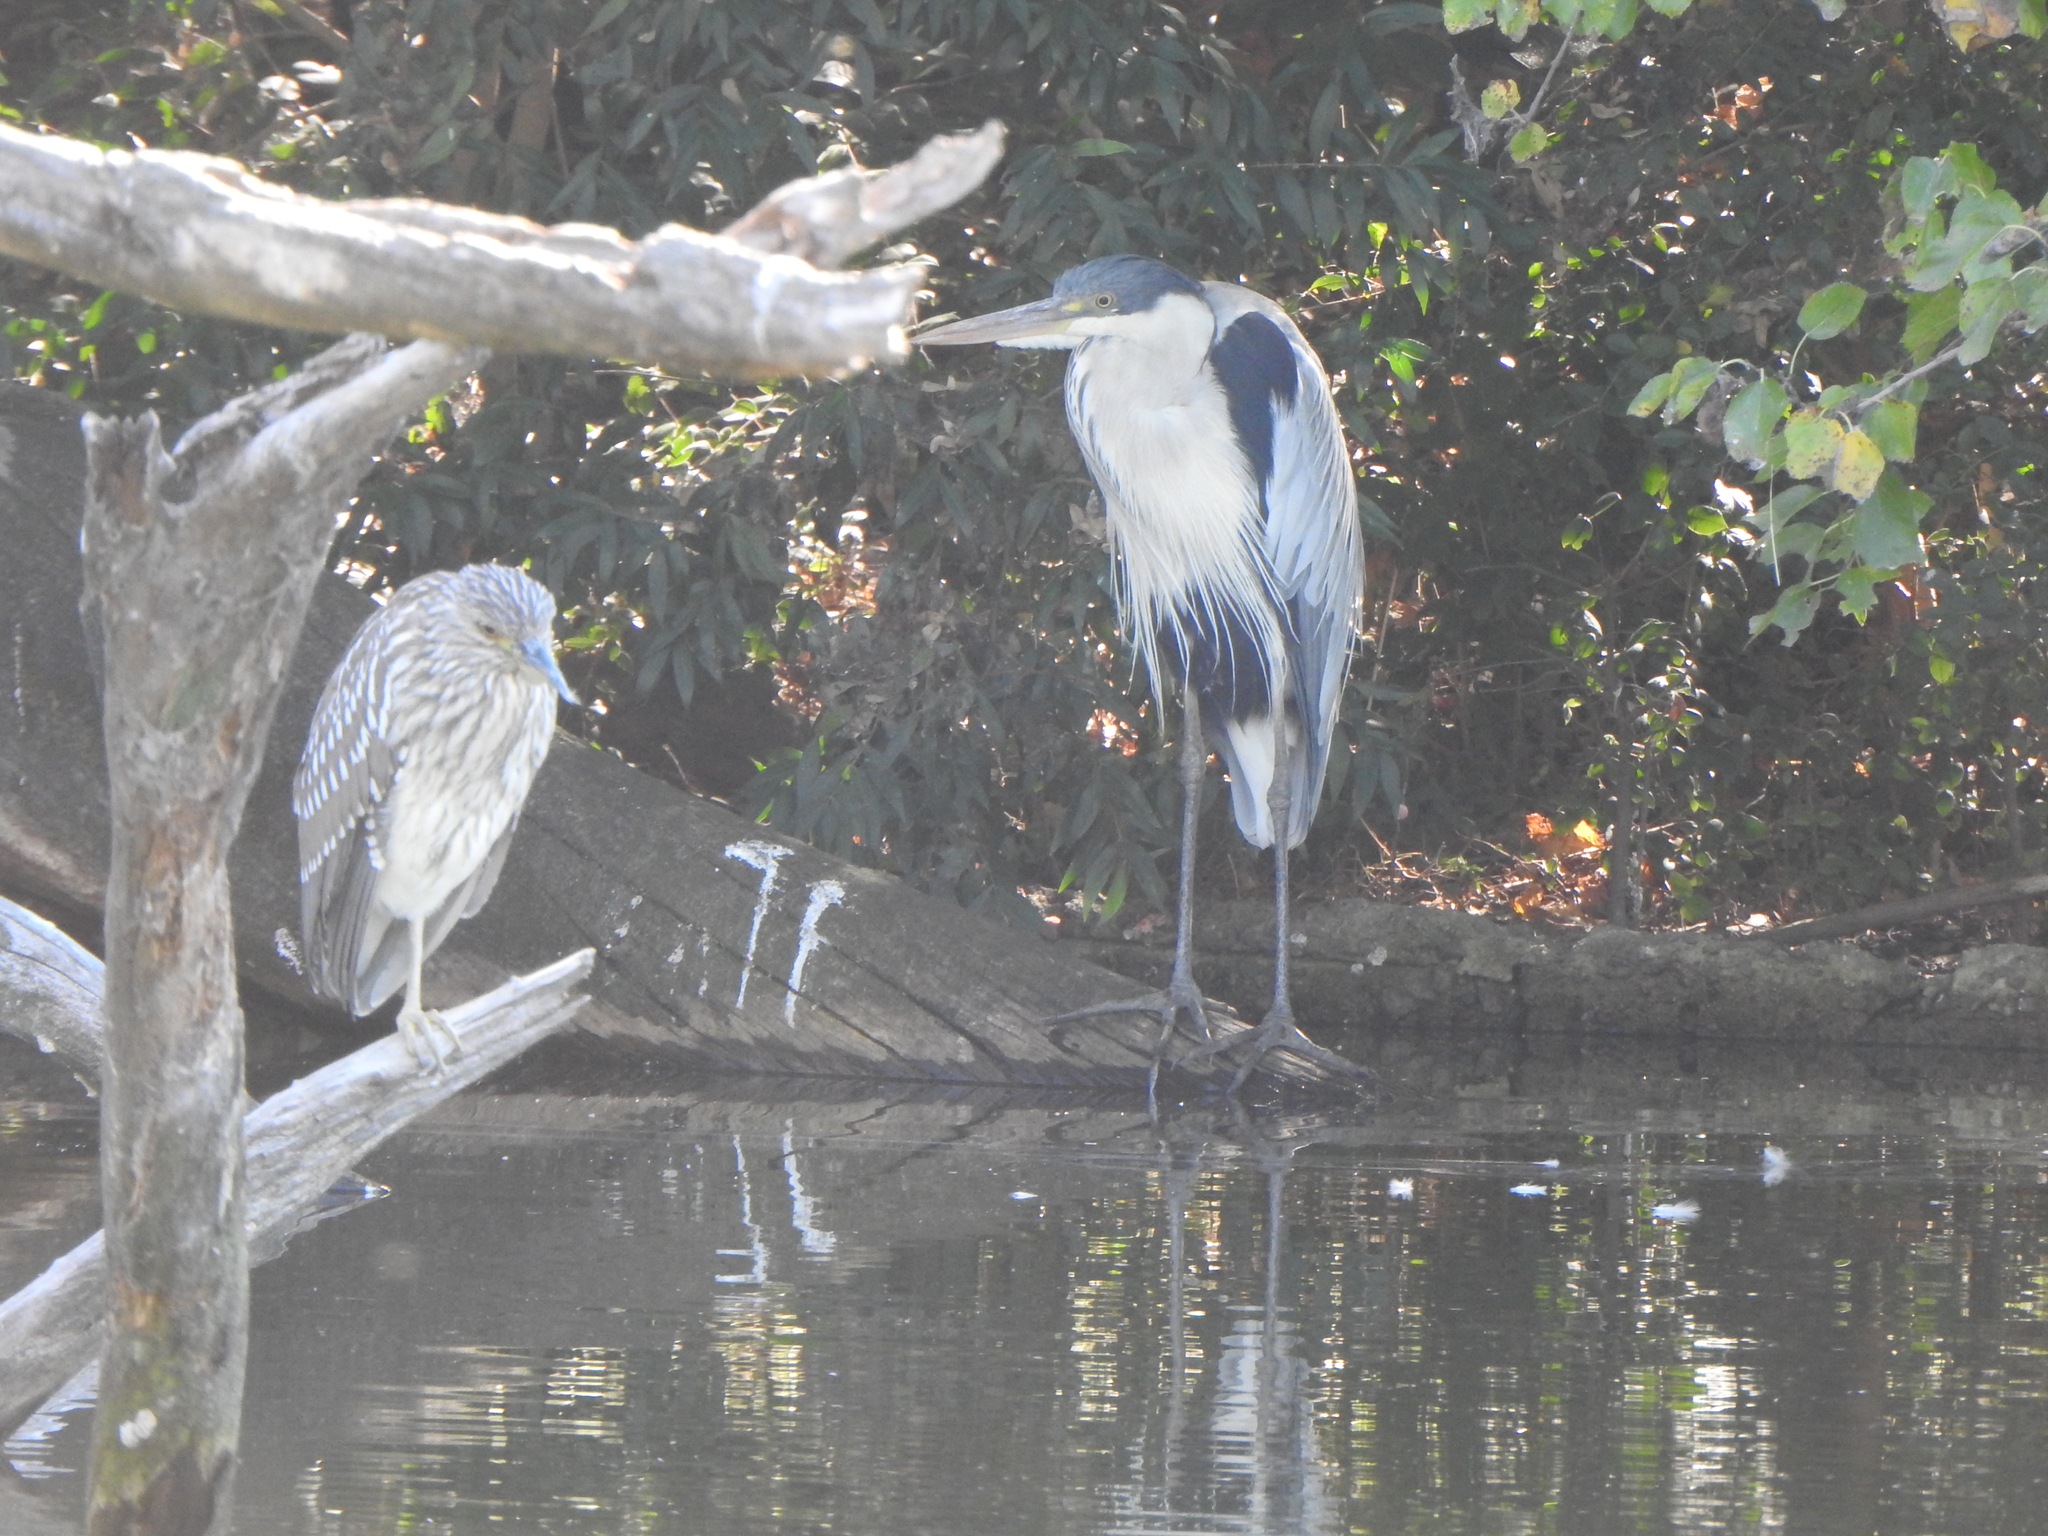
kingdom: Animalia
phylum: Chordata
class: Aves
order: Pelecaniformes
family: Ardeidae
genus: Nycticorax
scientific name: Nycticorax nycticorax
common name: Black-crowned night heron
